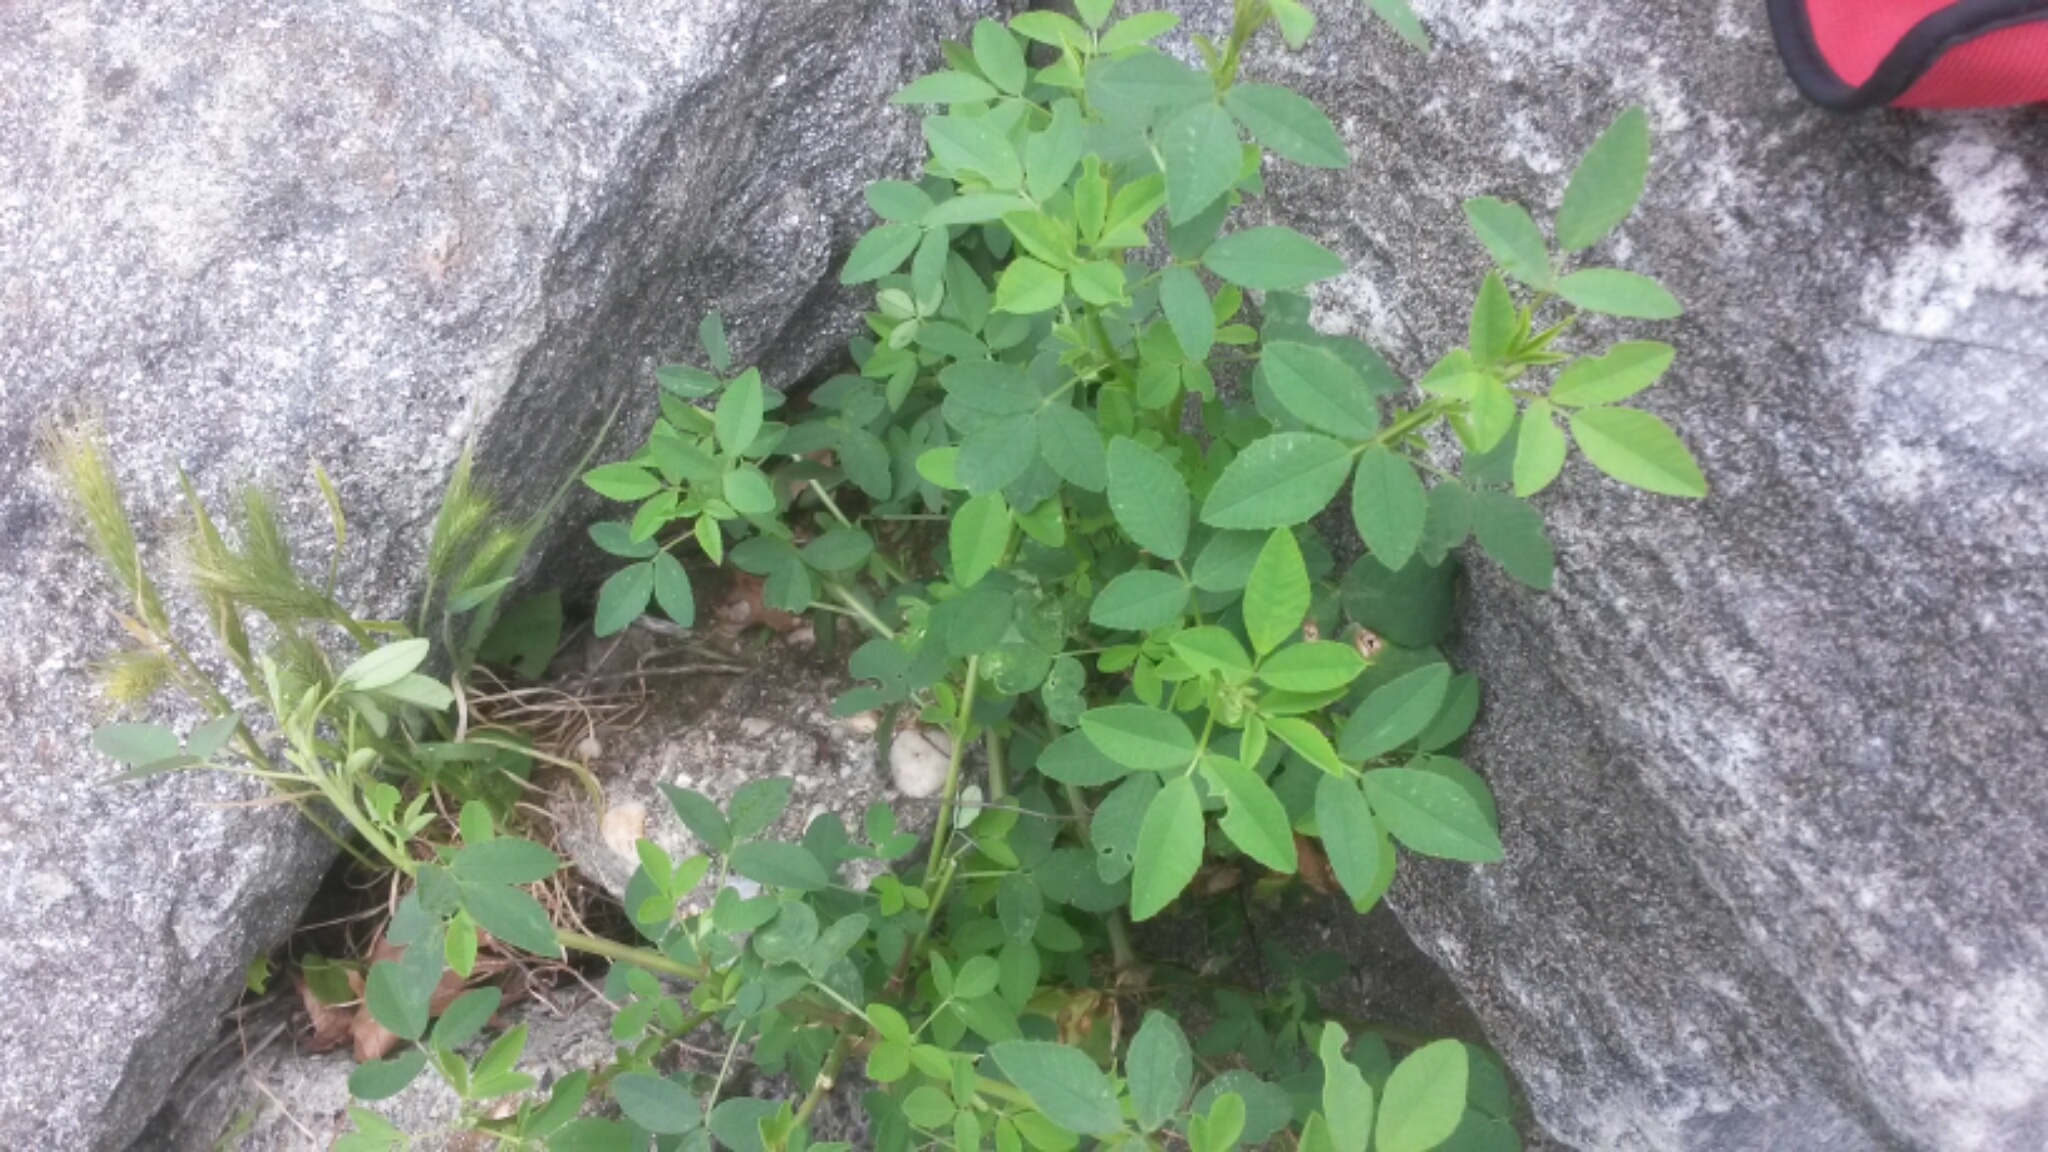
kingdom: Plantae
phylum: Tracheophyta
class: Magnoliopsida
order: Fabales
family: Fabaceae
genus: Melilotus
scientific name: Melilotus
